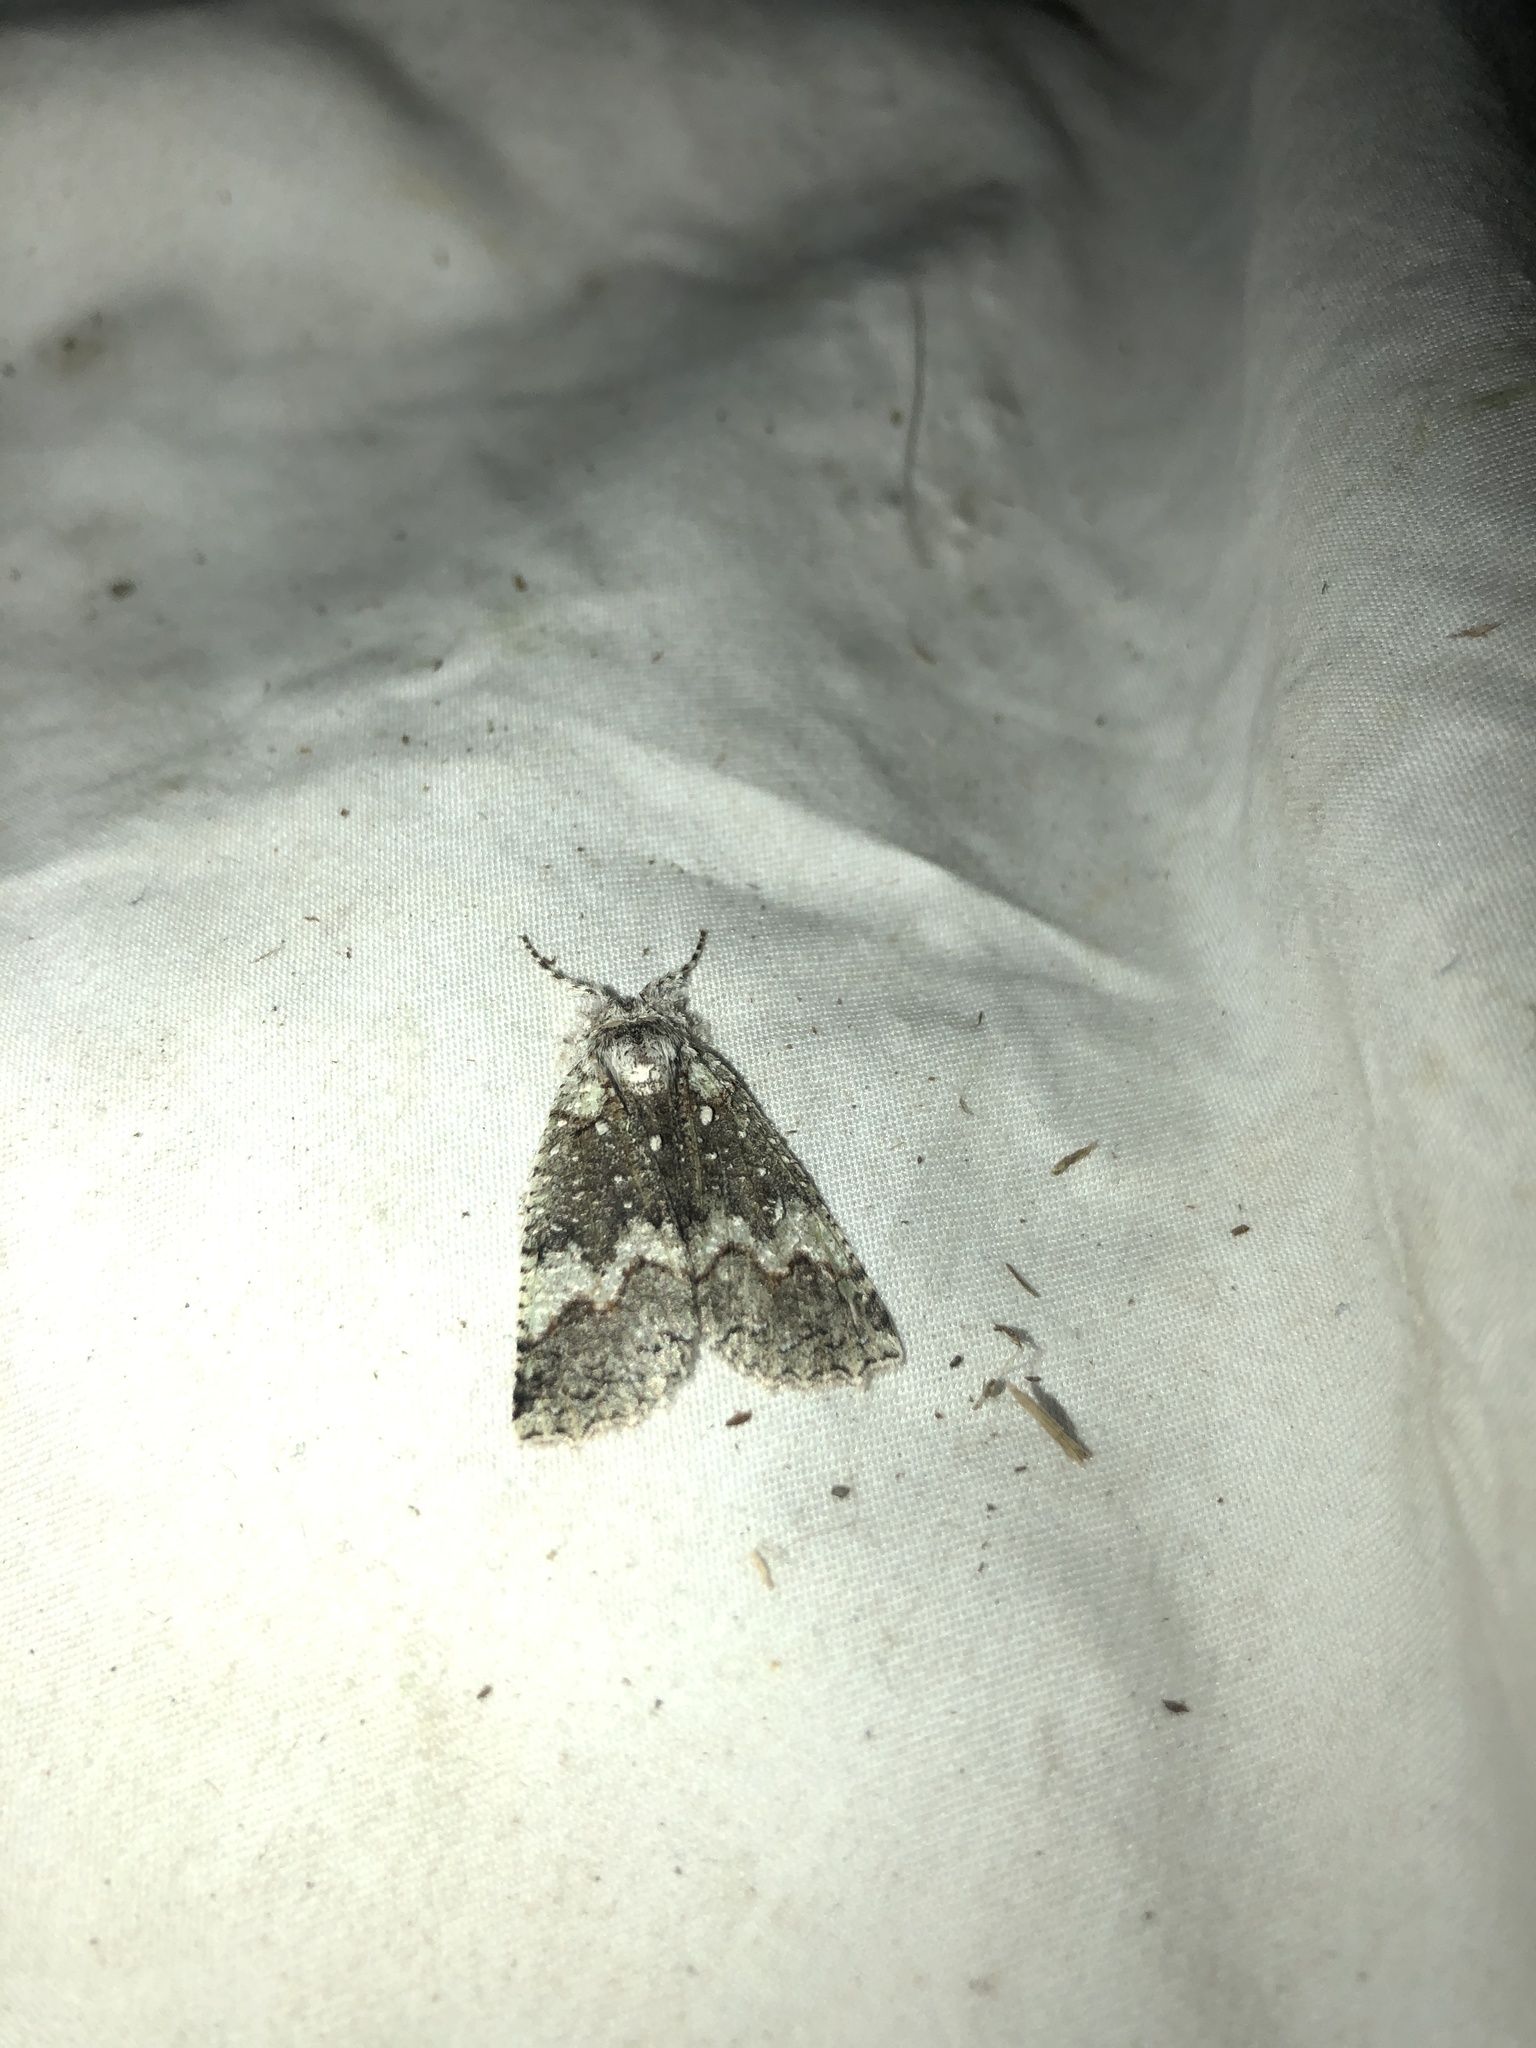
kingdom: Animalia
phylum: Arthropoda
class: Insecta
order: Lepidoptera
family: Geometridae
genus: Declana
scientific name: Declana floccosa
